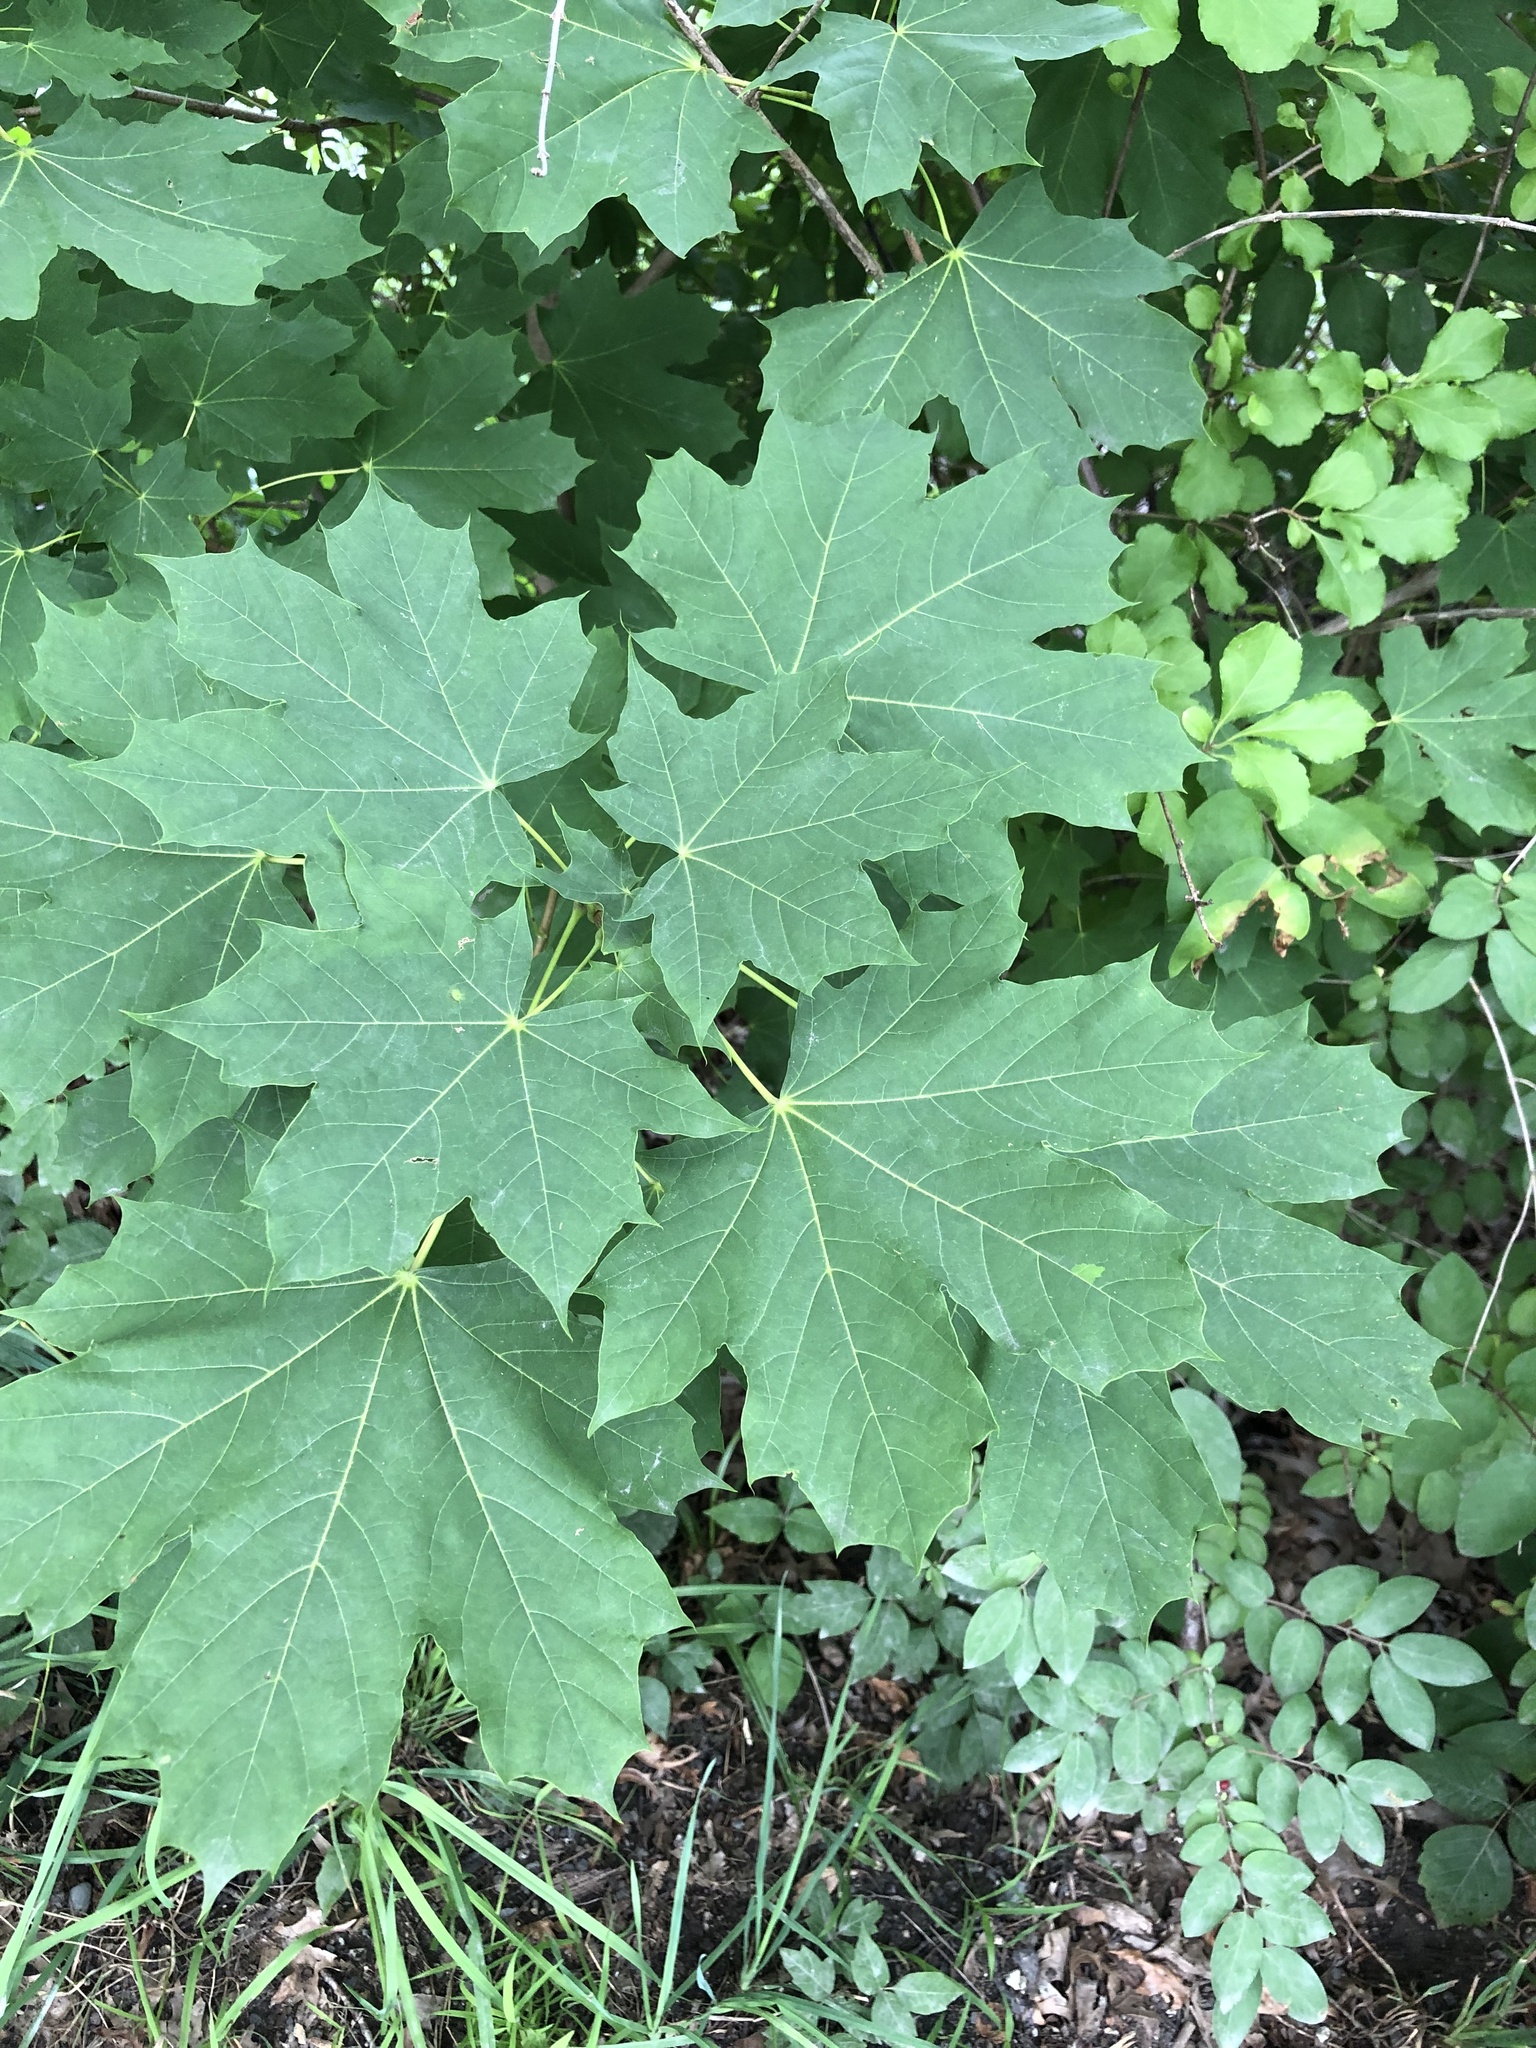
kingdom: Plantae
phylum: Tracheophyta
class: Magnoliopsida
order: Sapindales
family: Sapindaceae
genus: Acer
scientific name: Acer platanoides
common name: Norway maple
